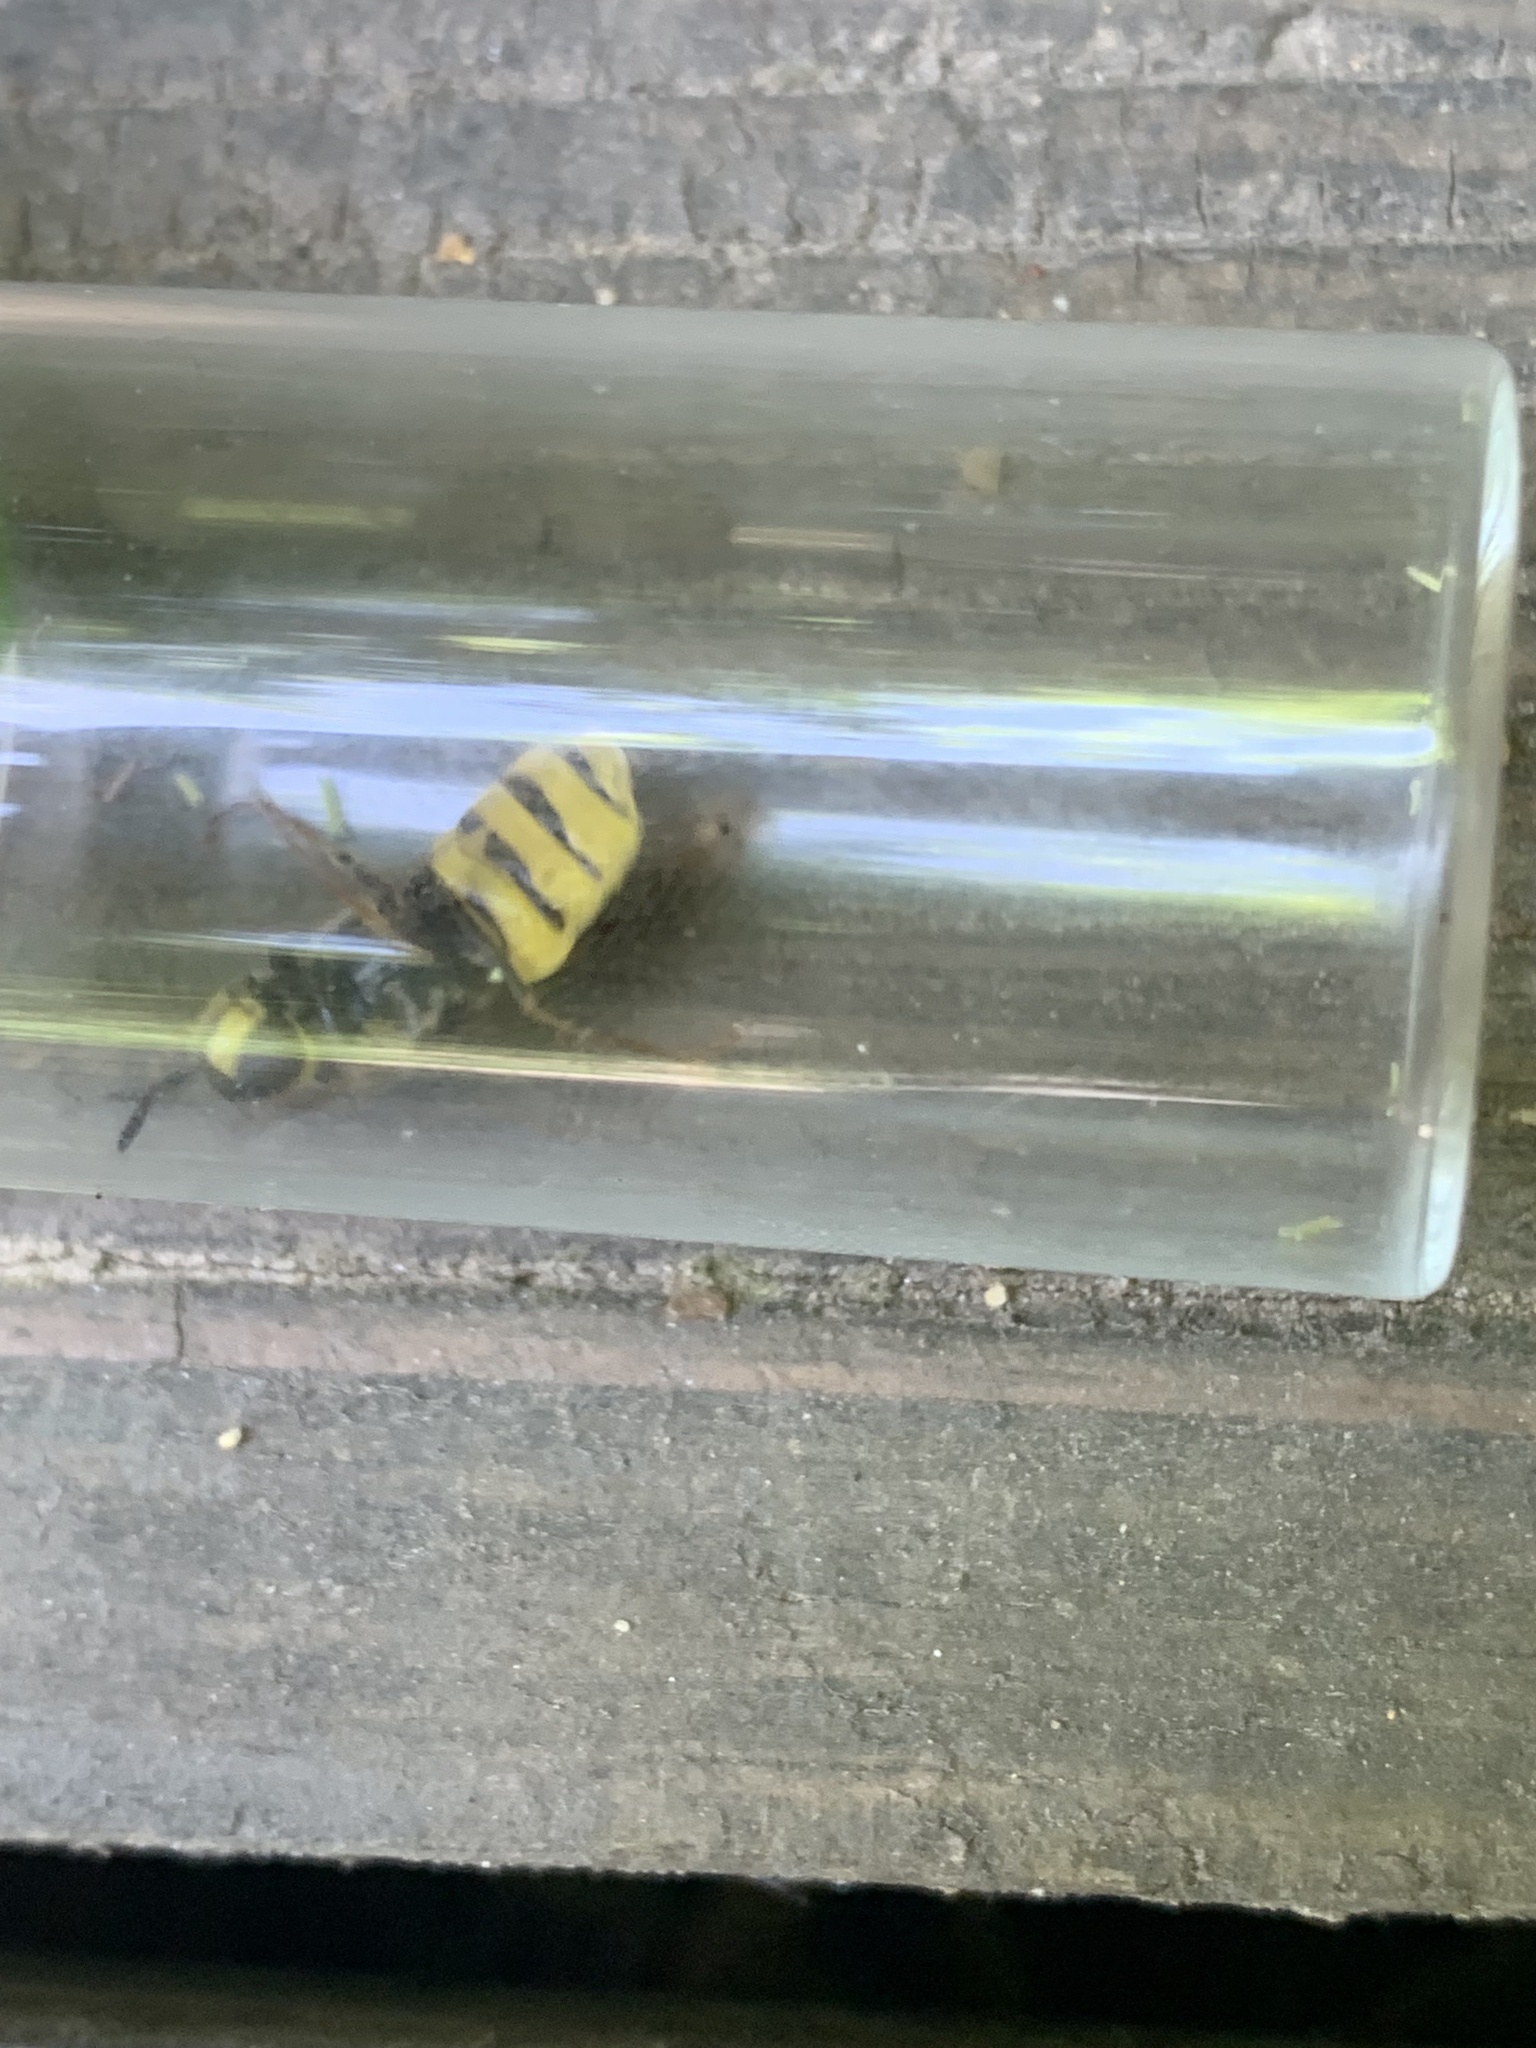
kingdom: Animalia
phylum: Arthropoda
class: Insecta
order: Diptera
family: Stratiomyidae
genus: Stratiomys
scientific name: Stratiomys potamida
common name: Banded general
